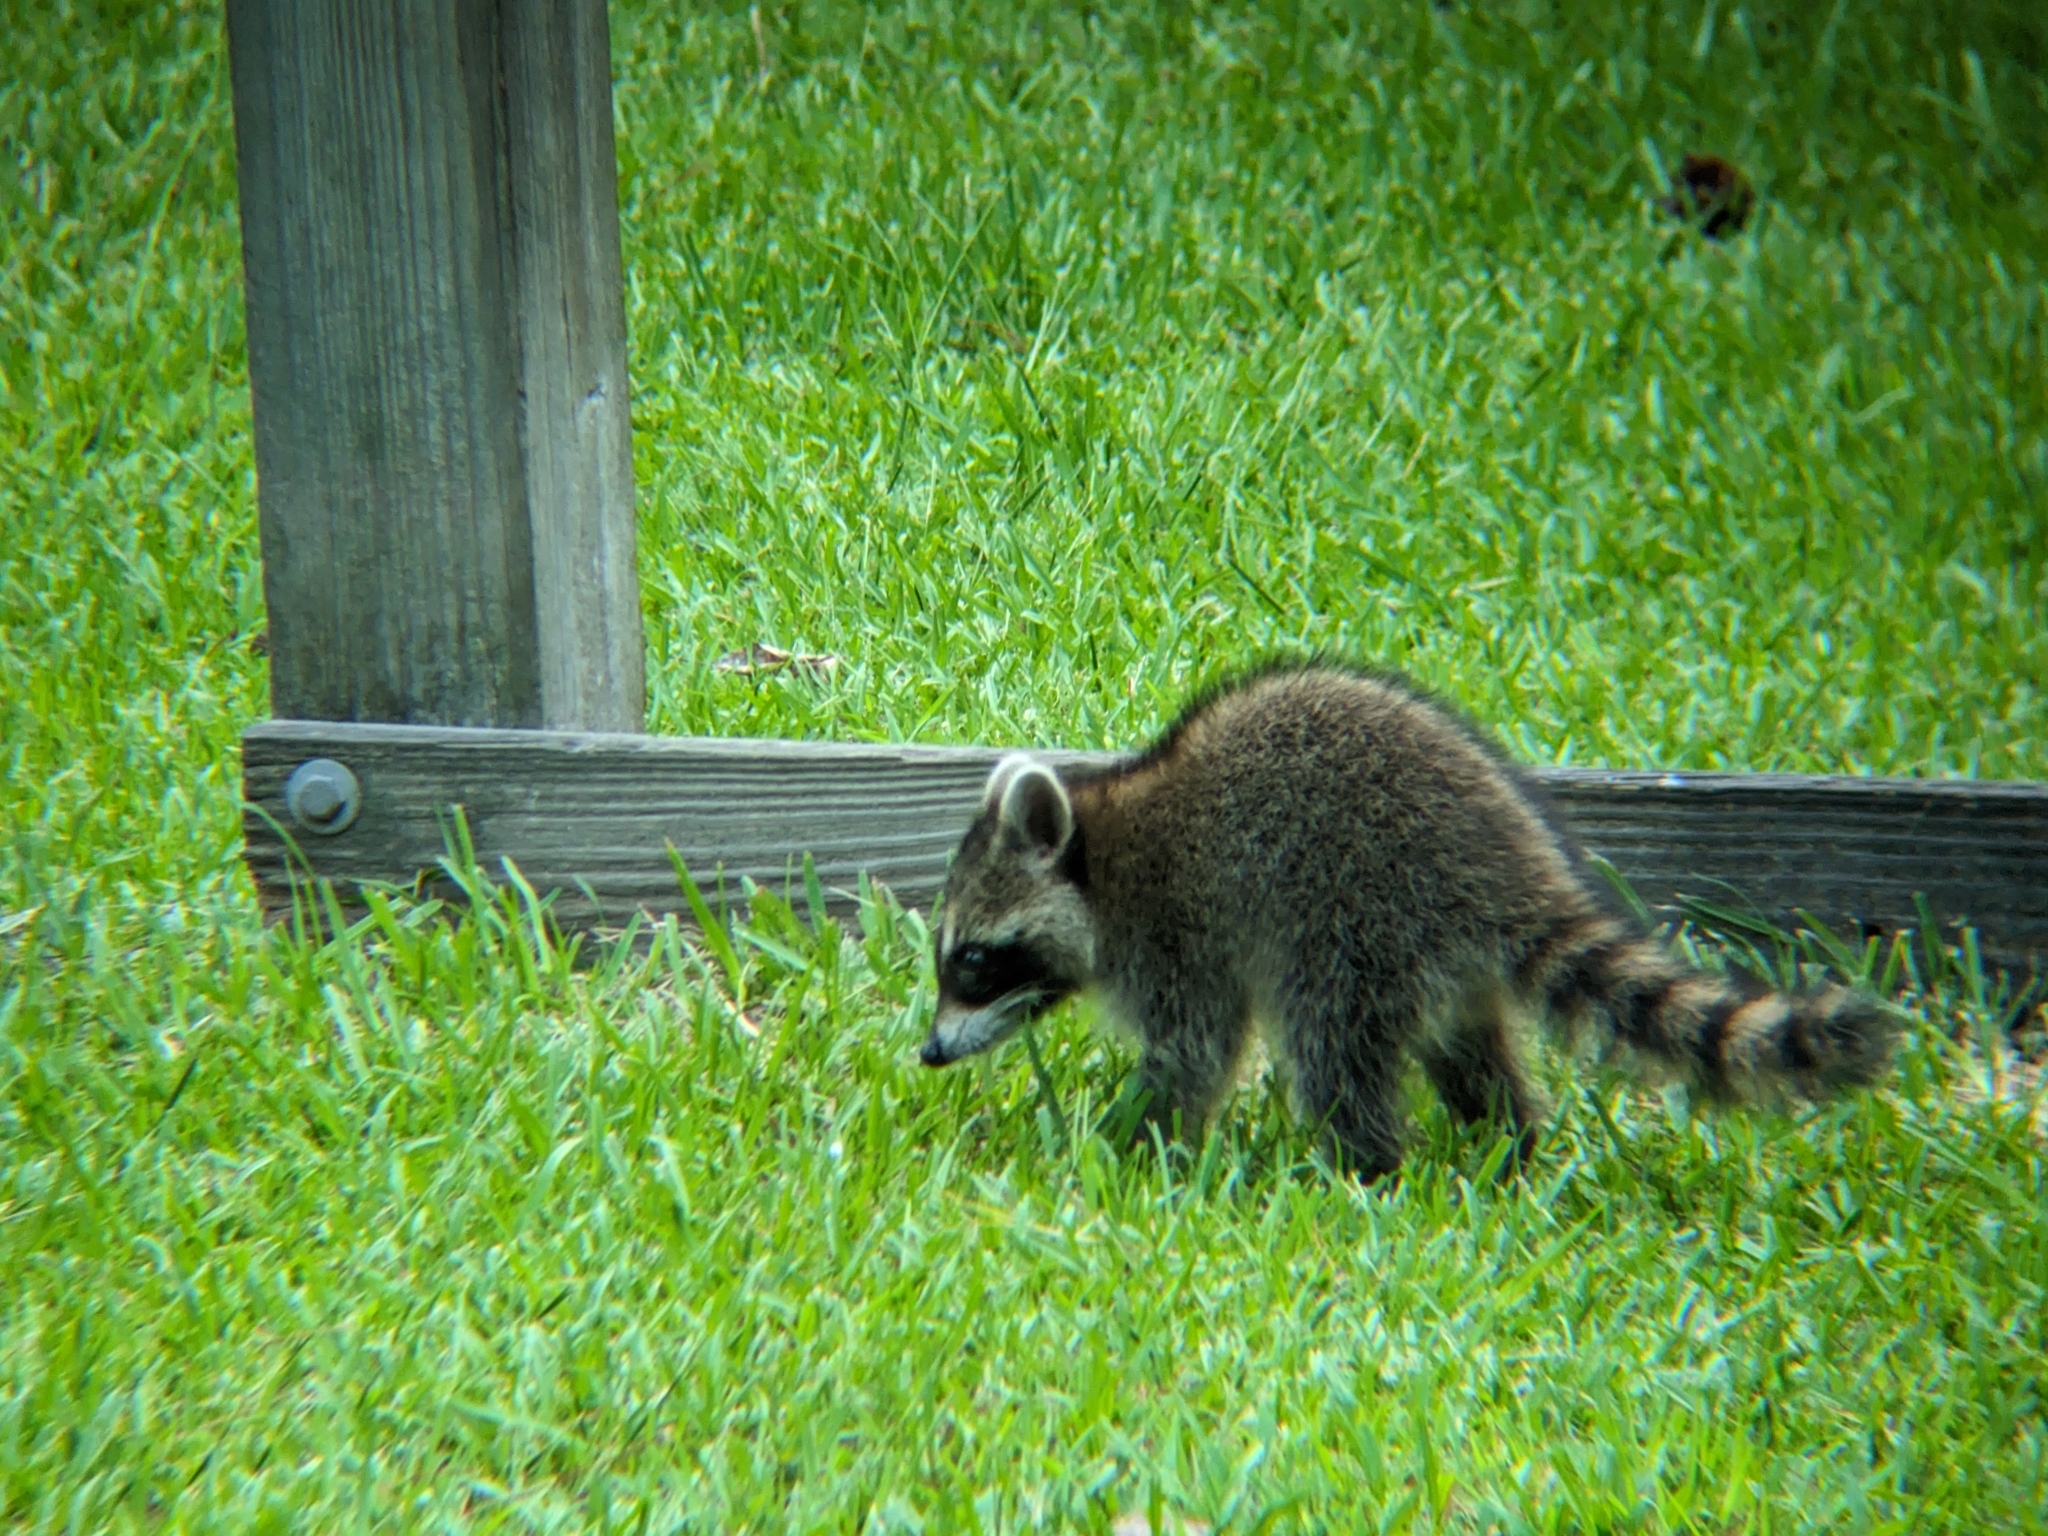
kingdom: Animalia
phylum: Chordata
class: Mammalia
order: Carnivora
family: Procyonidae
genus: Procyon
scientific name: Procyon lotor
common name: Raccoon
